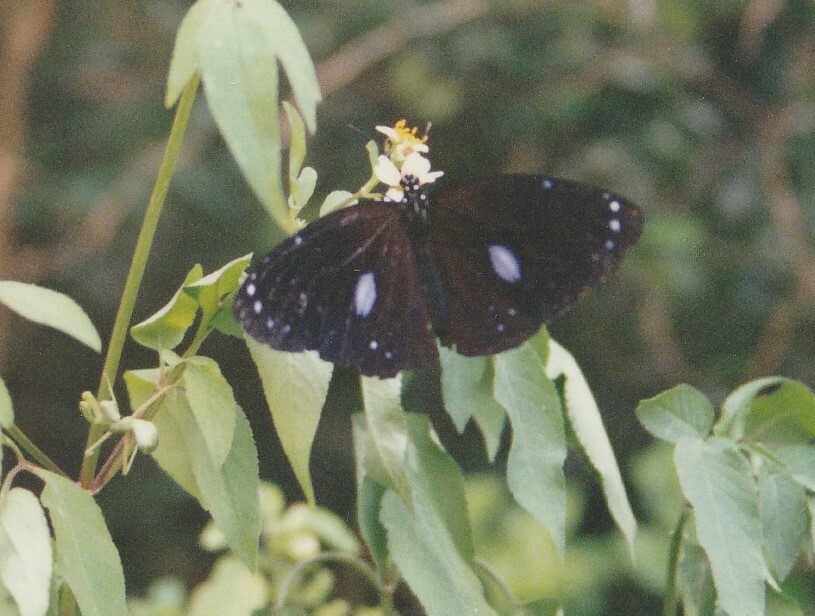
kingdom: Animalia
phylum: Arthropoda
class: Insecta
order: Lepidoptera
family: Nymphalidae
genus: Euploea
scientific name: Euploea eunice
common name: Blue-banded king crow butterfly
